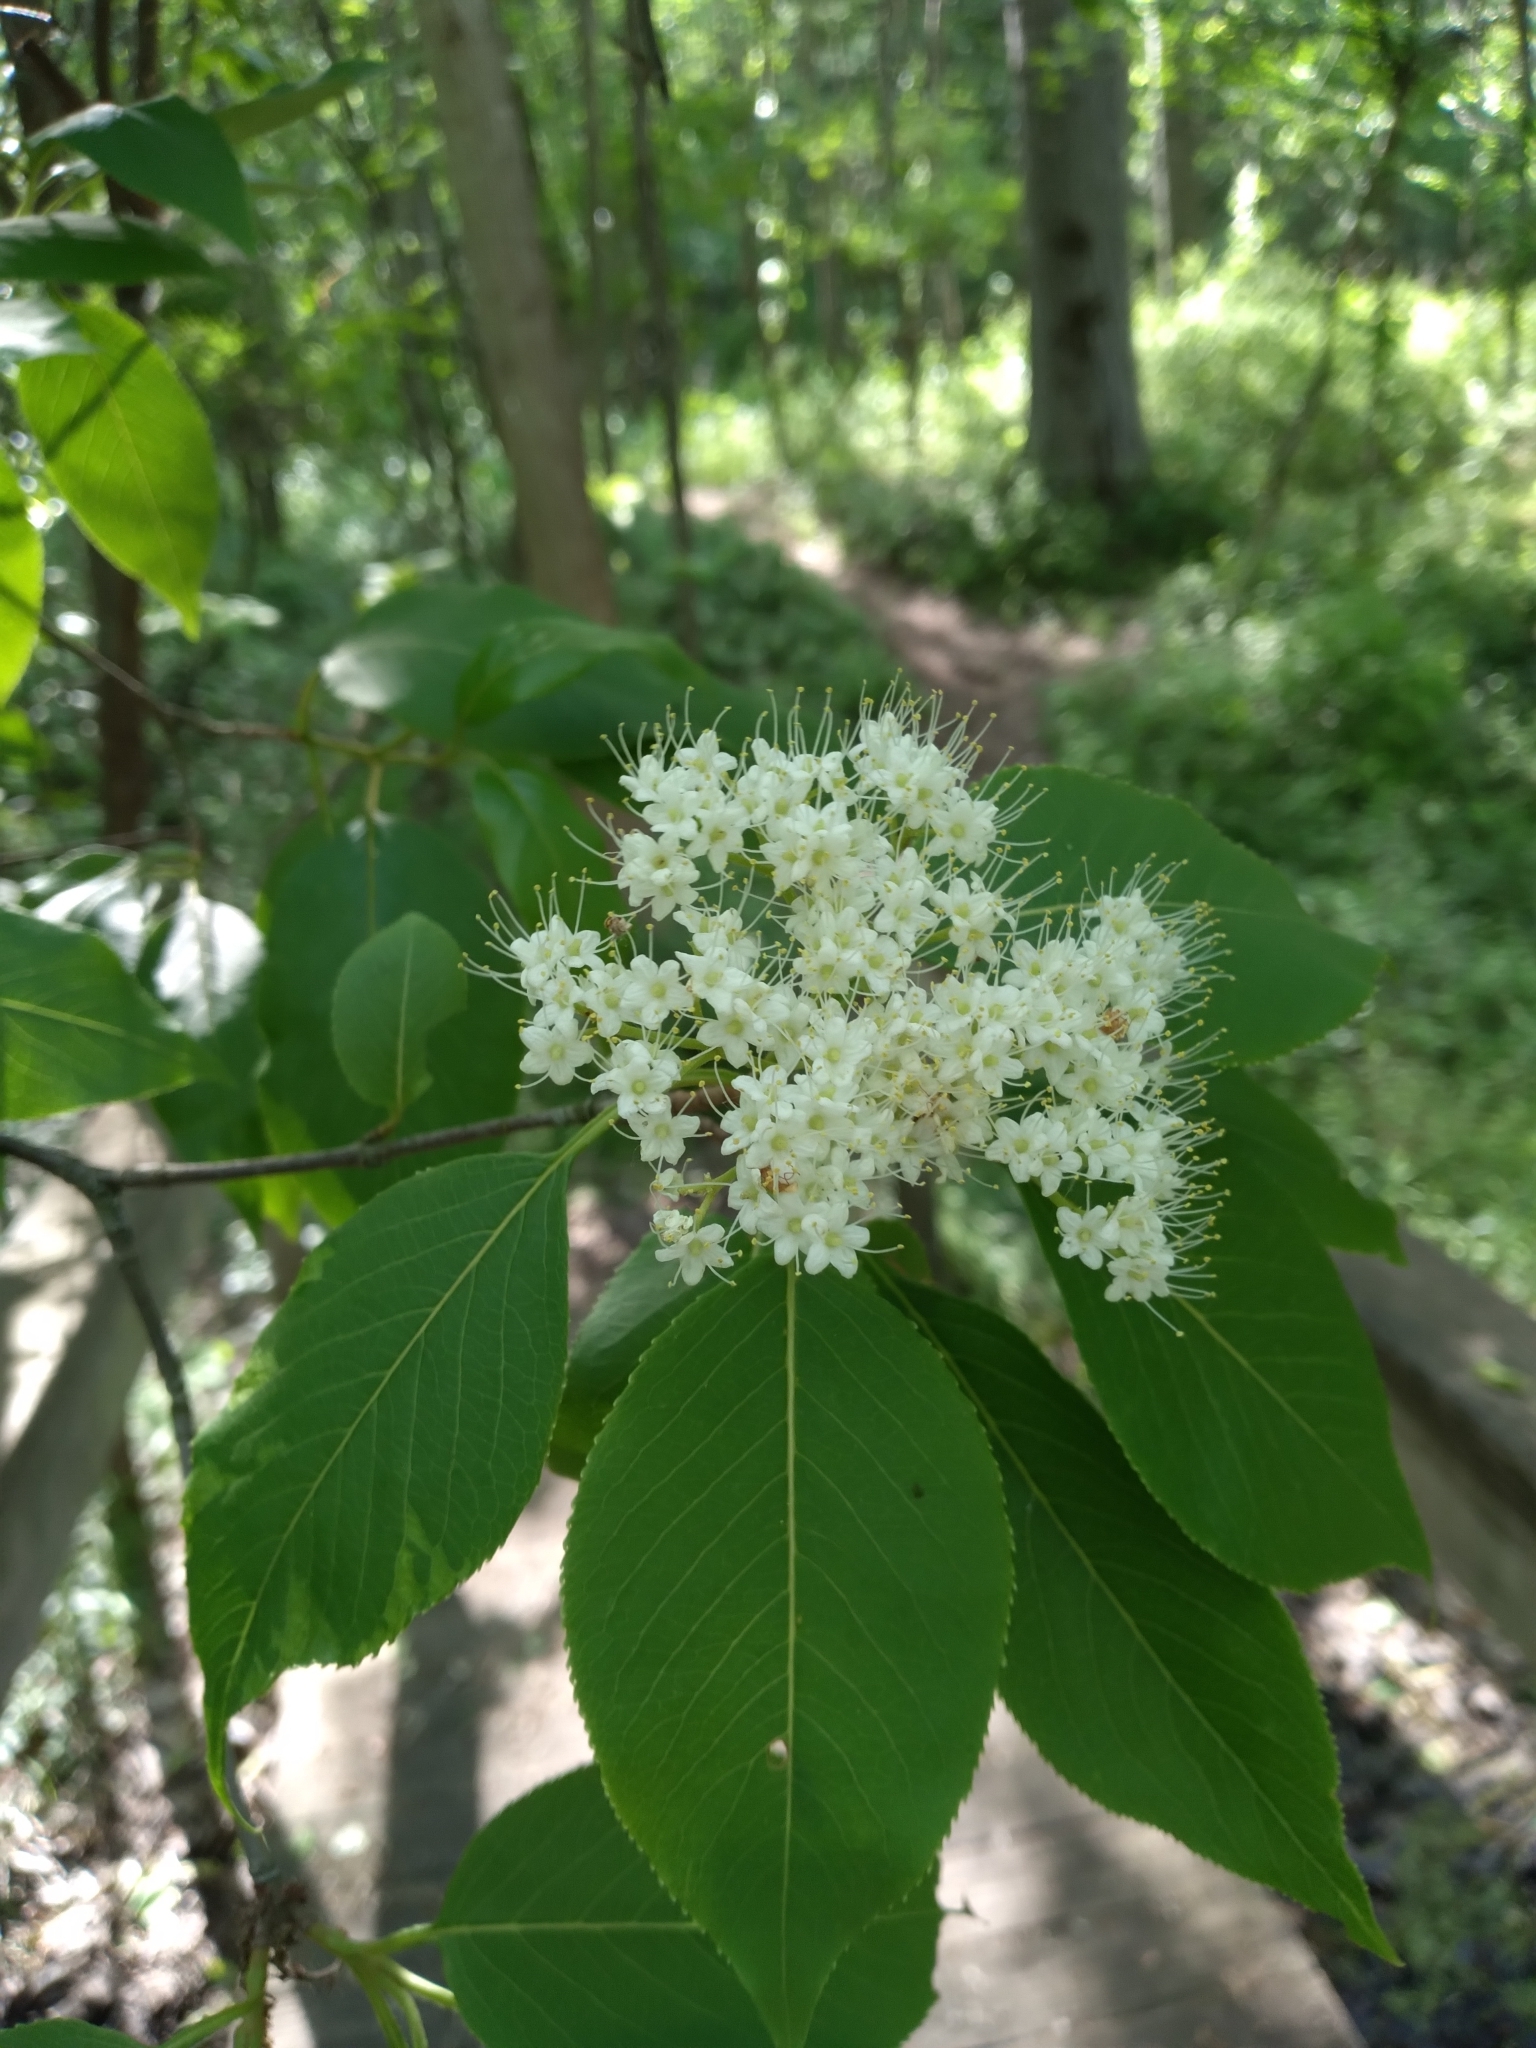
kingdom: Plantae
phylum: Tracheophyta
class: Magnoliopsida
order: Dipsacales
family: Viburnaceae
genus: Viburnum
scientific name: Viburnum lentago
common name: Black haw
